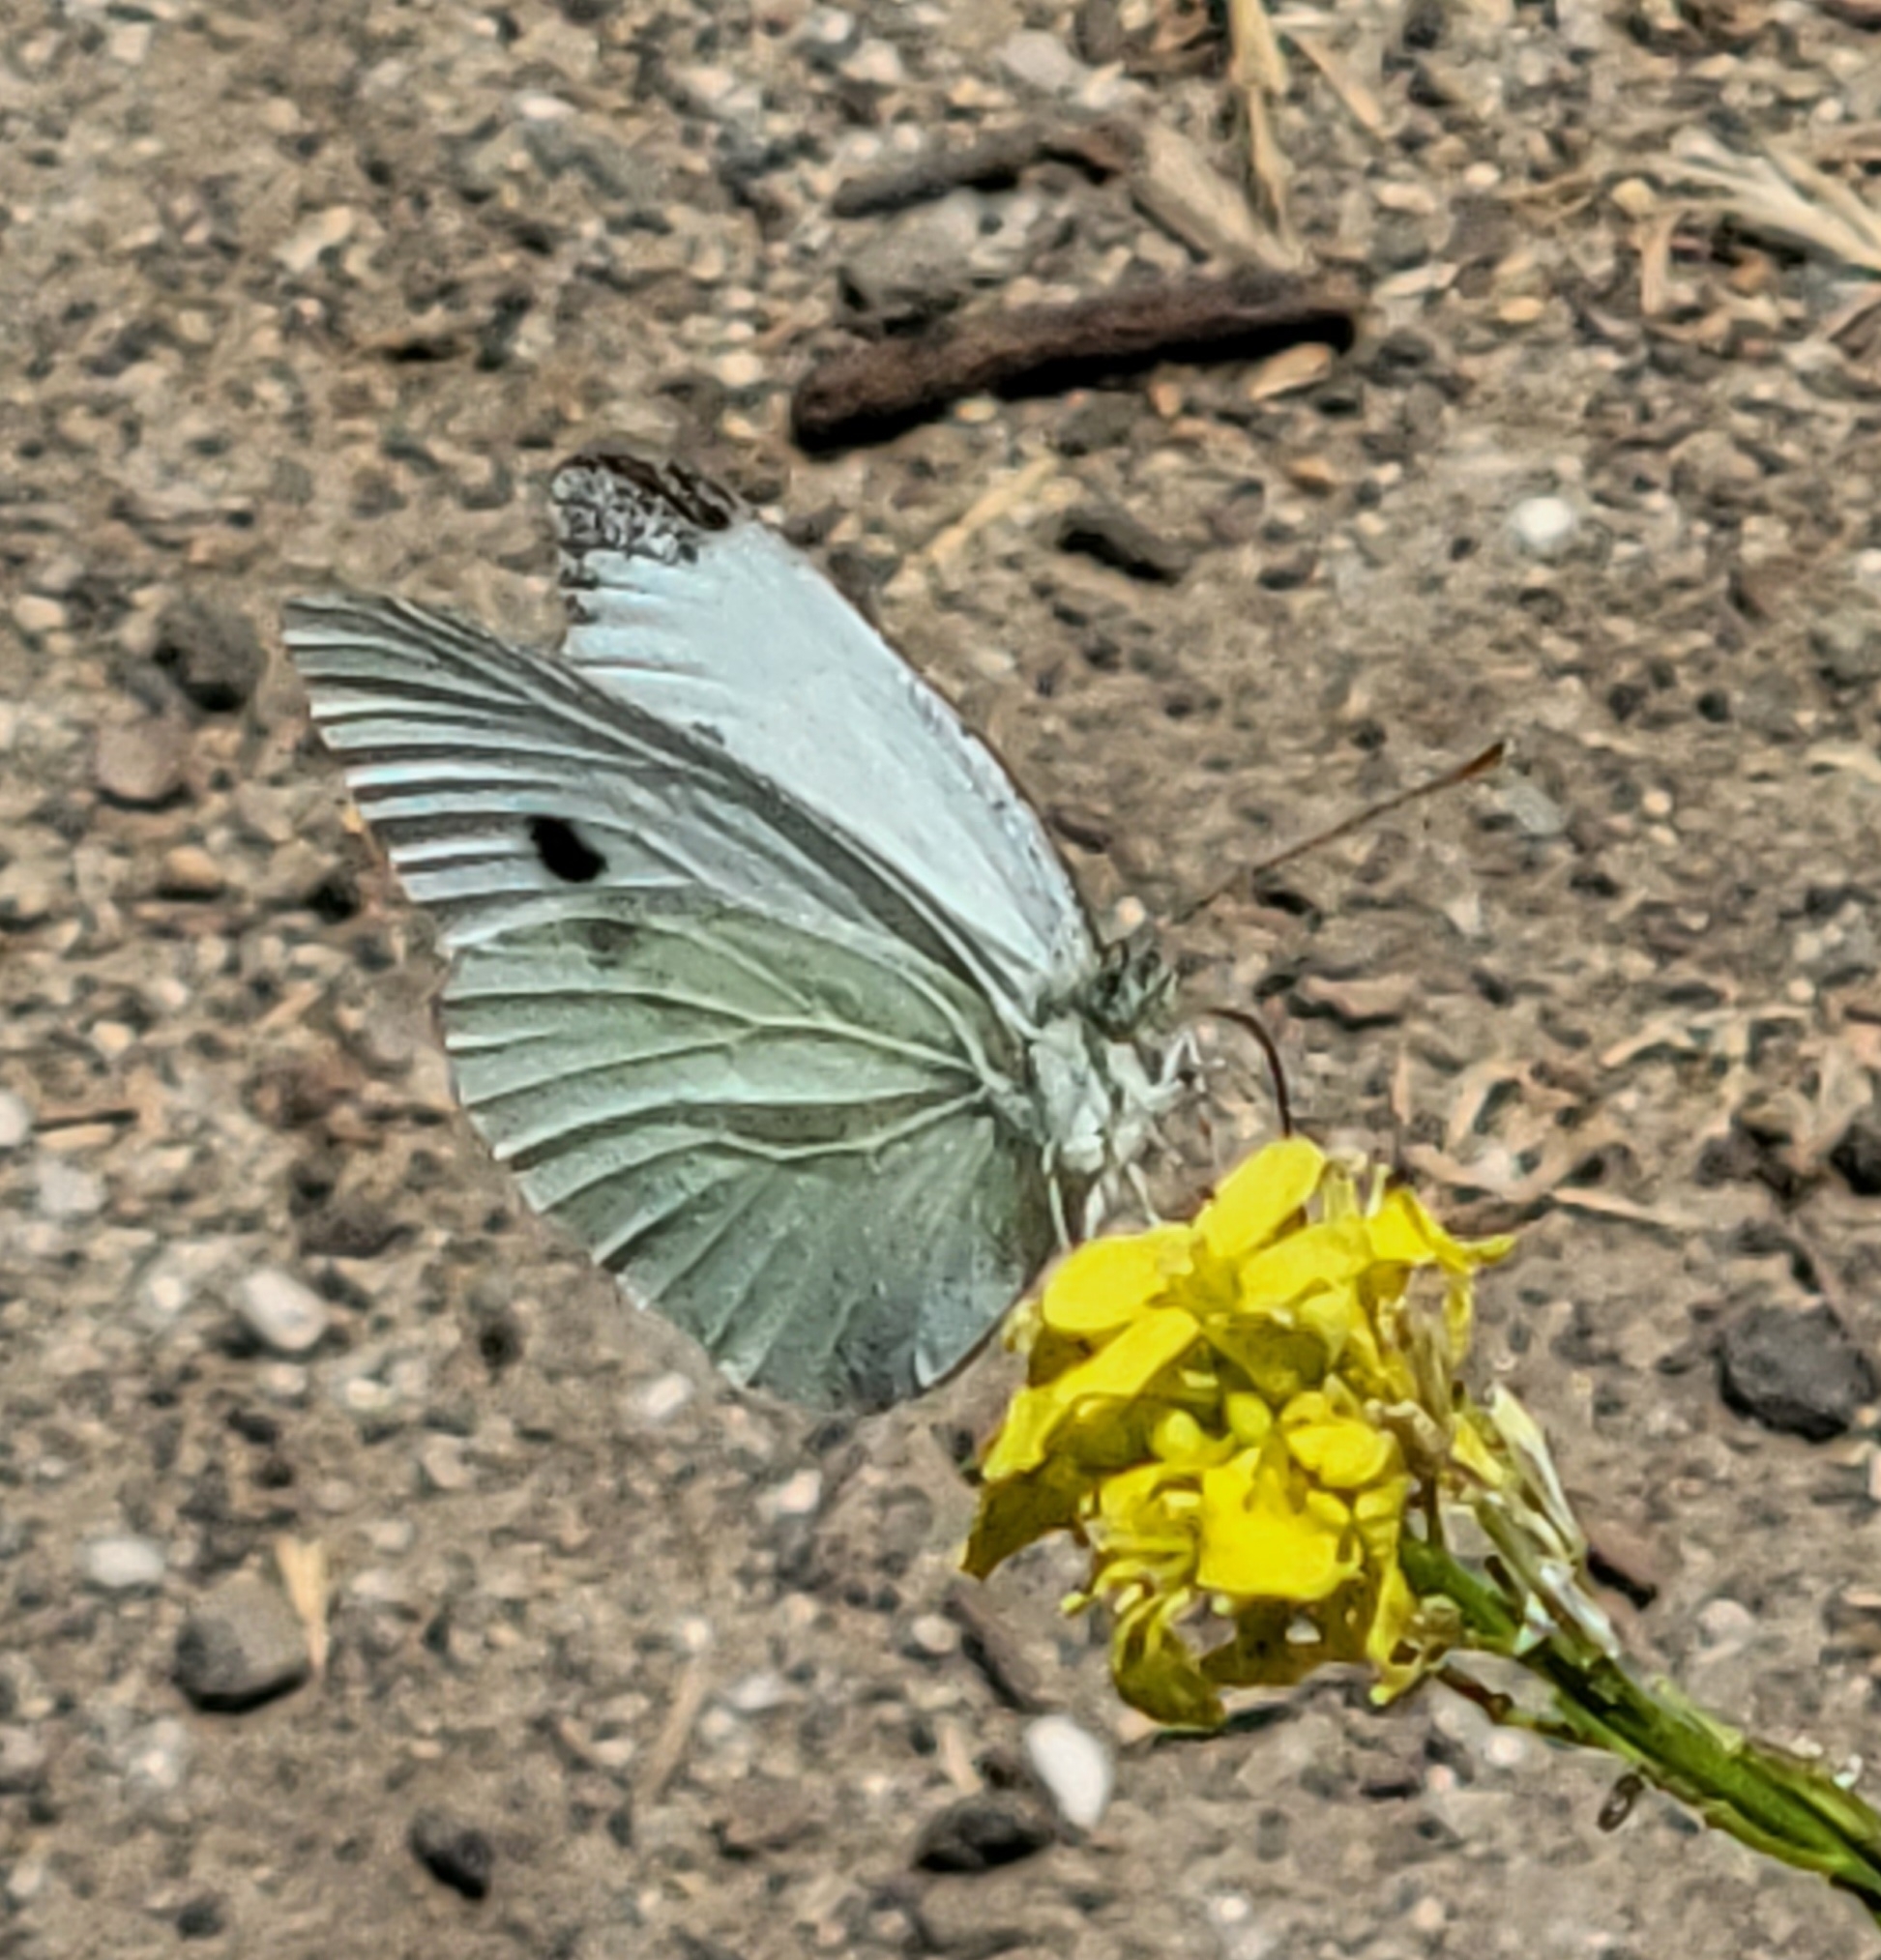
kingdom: Animalia
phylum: Arthropoda
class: Insecta
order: Lepidoptera
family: Pieridae
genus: Pieris
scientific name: Pieris rapae
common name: Small white
